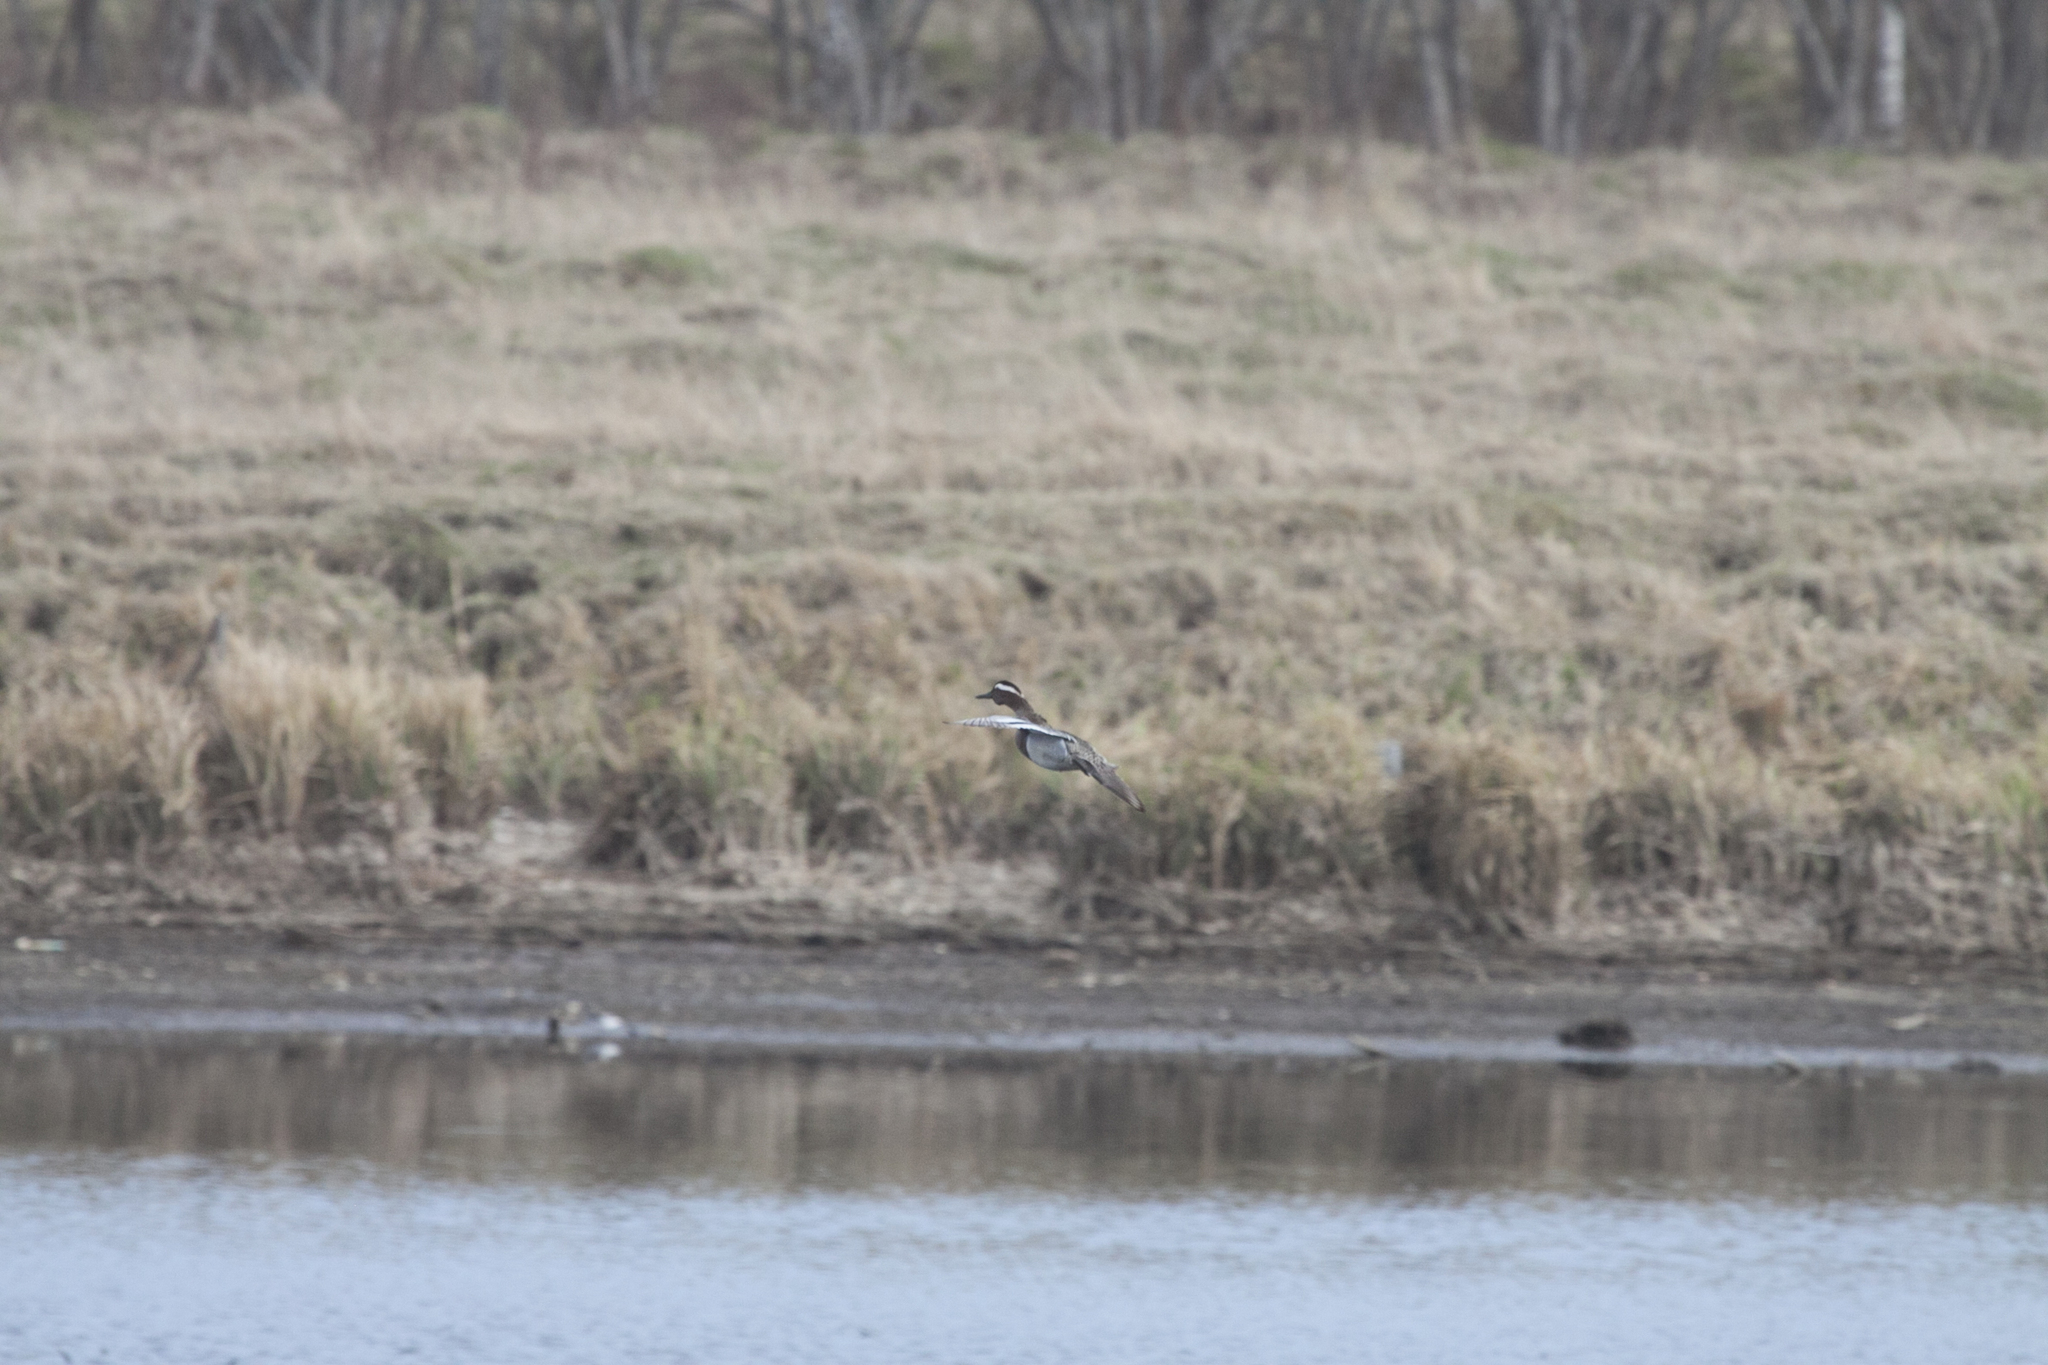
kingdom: Animalia
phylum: Chordata
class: Aves
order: Anseriformes
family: Anatidae
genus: Spatula
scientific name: Spatula querquedula
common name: Garganey
